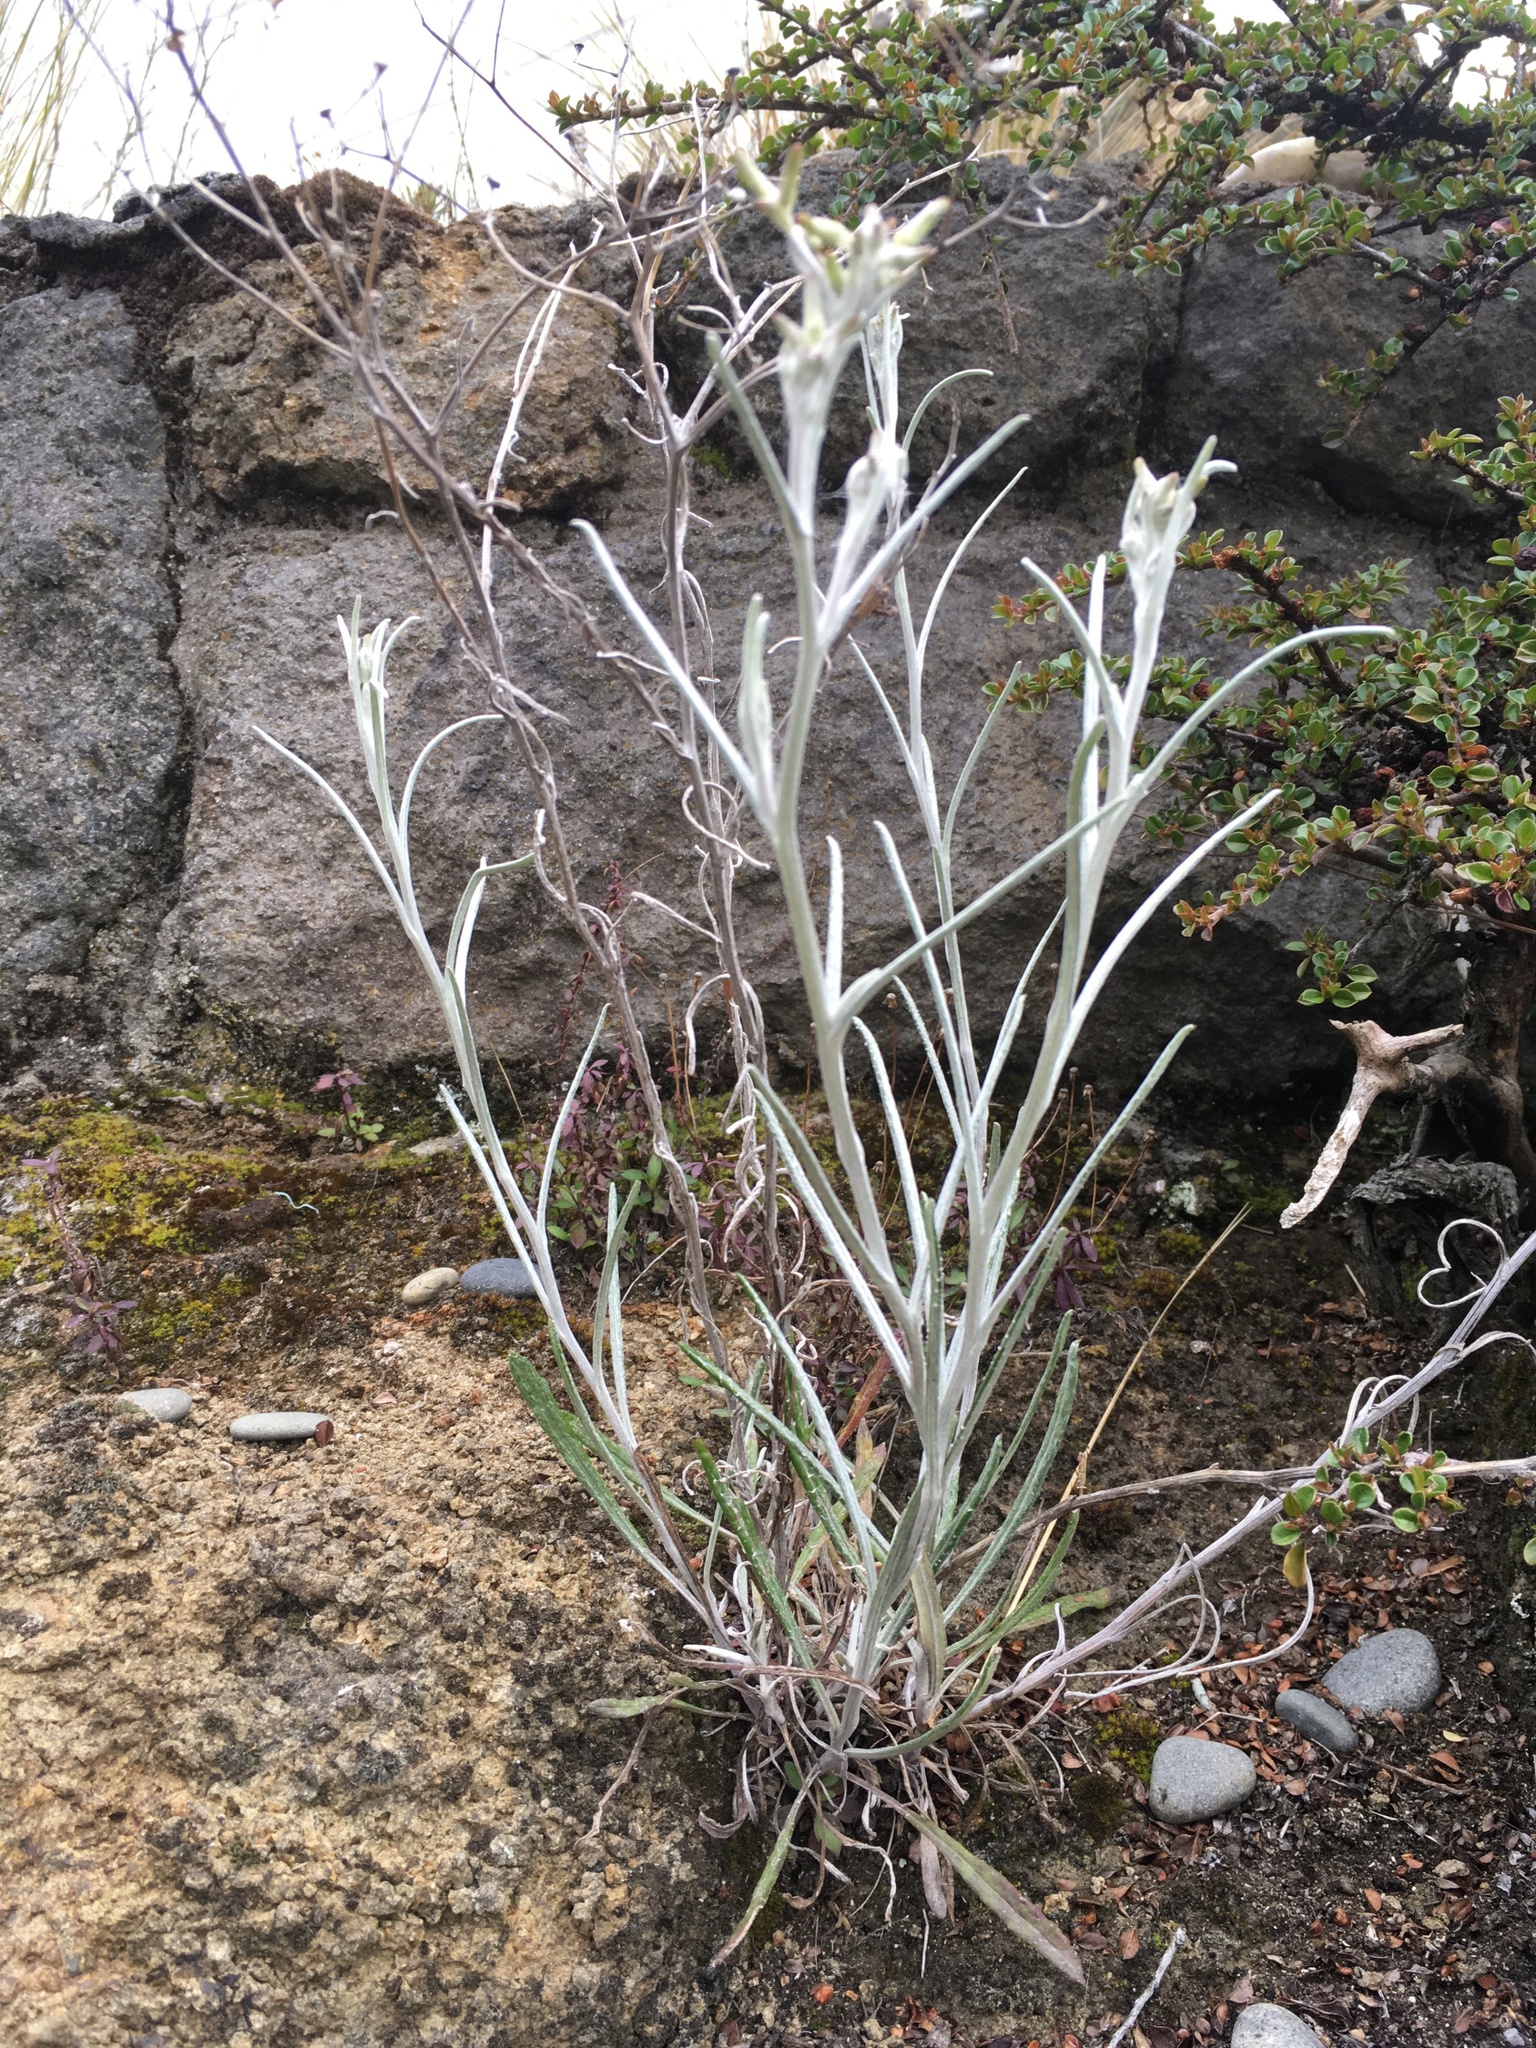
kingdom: Plantae
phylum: Tracheophyta
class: Magnoliopsida
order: Asterales
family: Asteraceae
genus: Senecio
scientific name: Senecio quadridentatus
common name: Cotton fireweed
